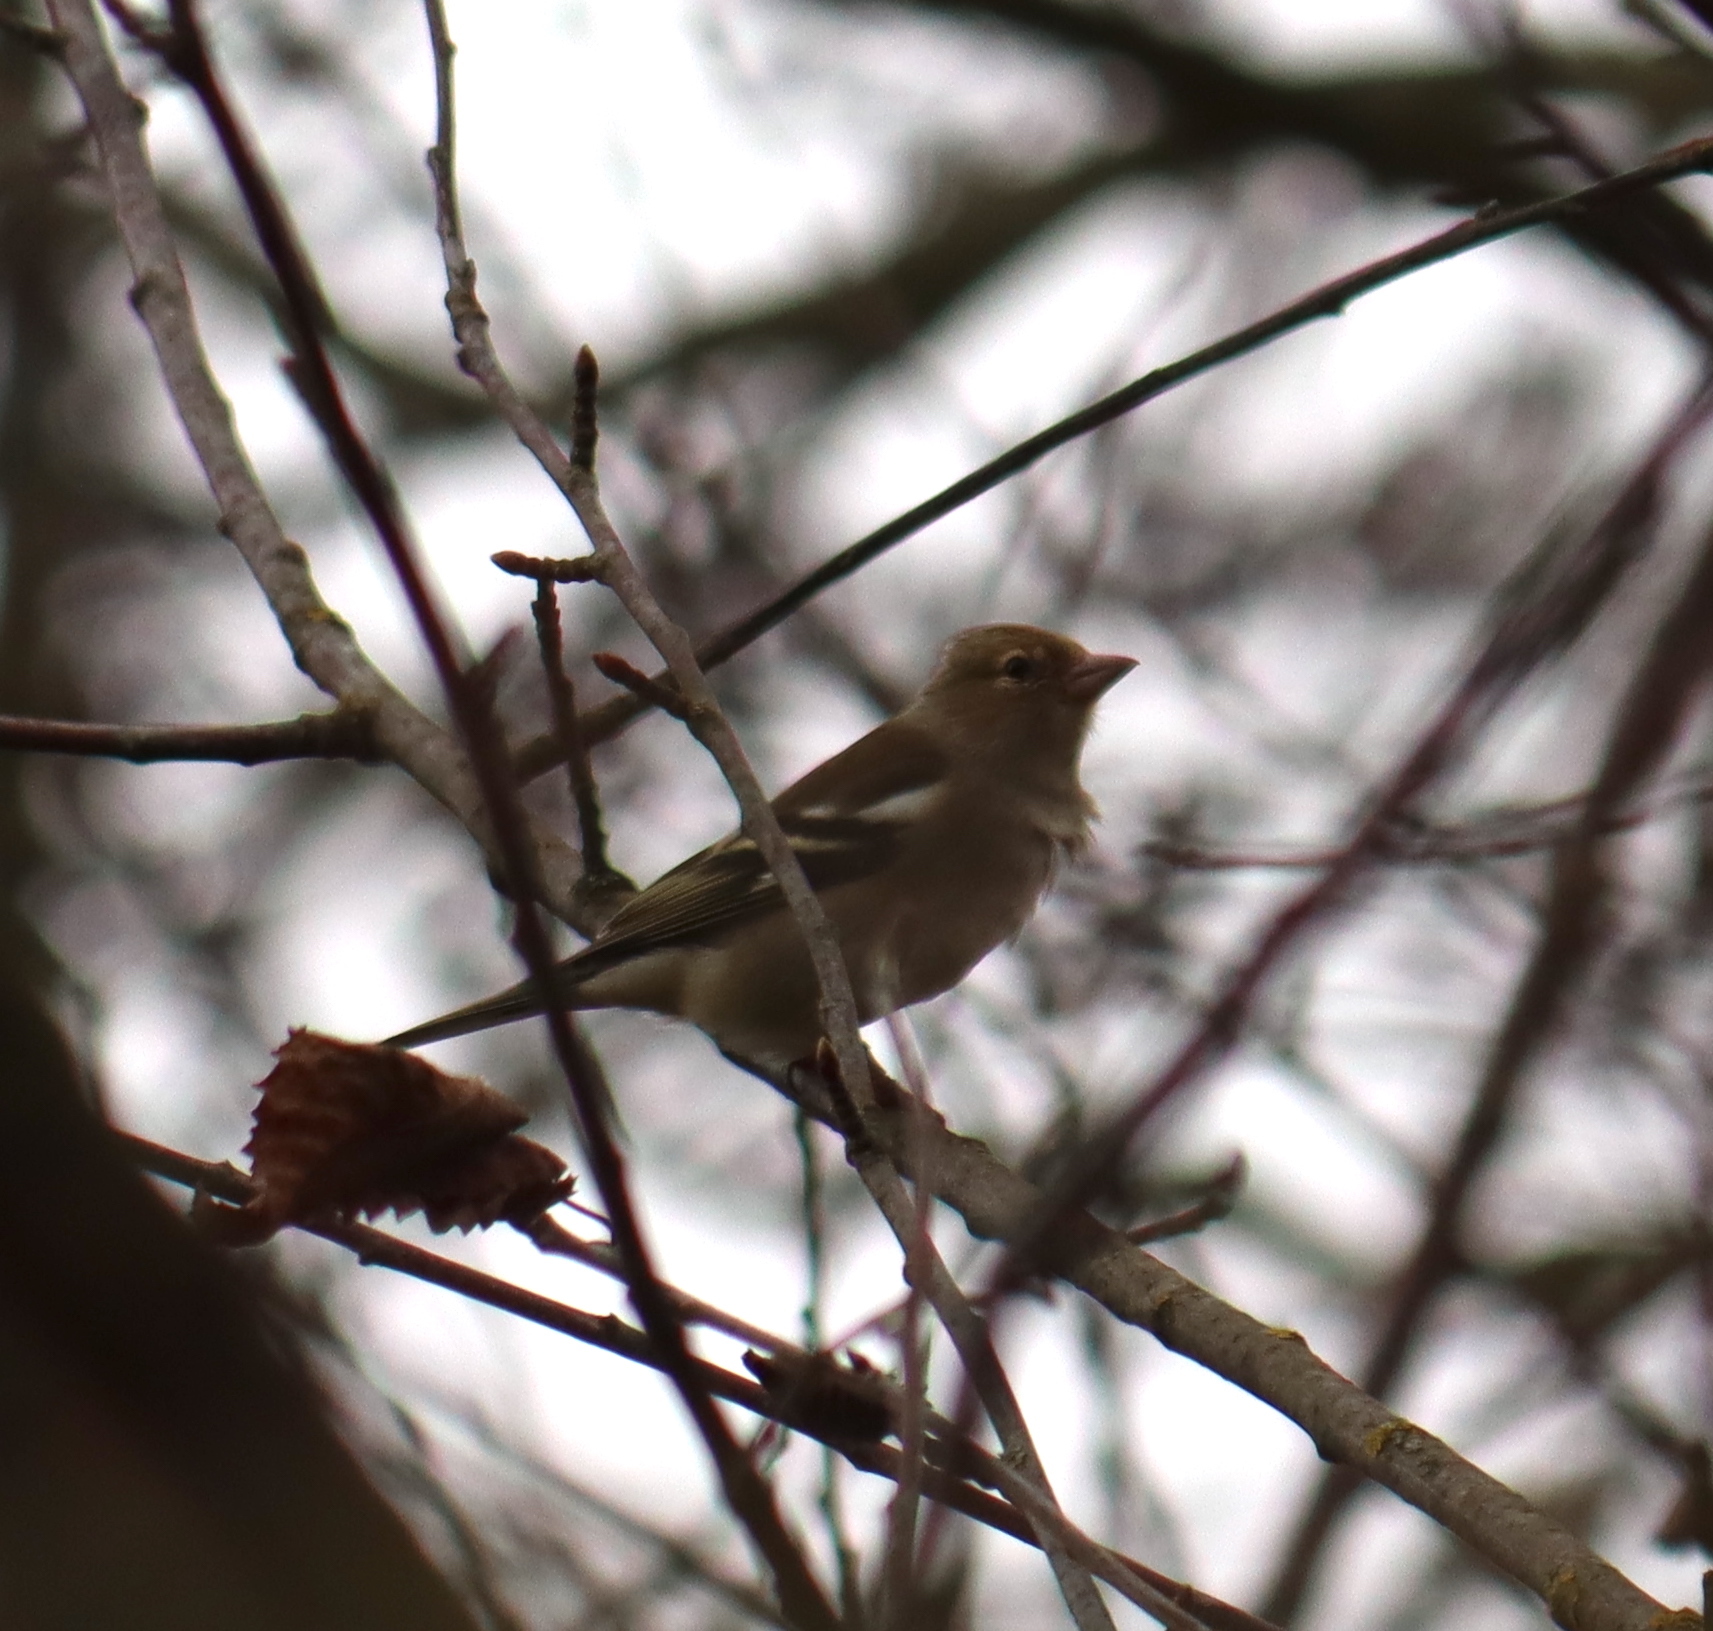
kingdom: Animalia
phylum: Chordata
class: Aves
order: Passeriformes
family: Fringillidae
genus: Fringilla
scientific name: Fringilla coelebs
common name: Common chaffinch
